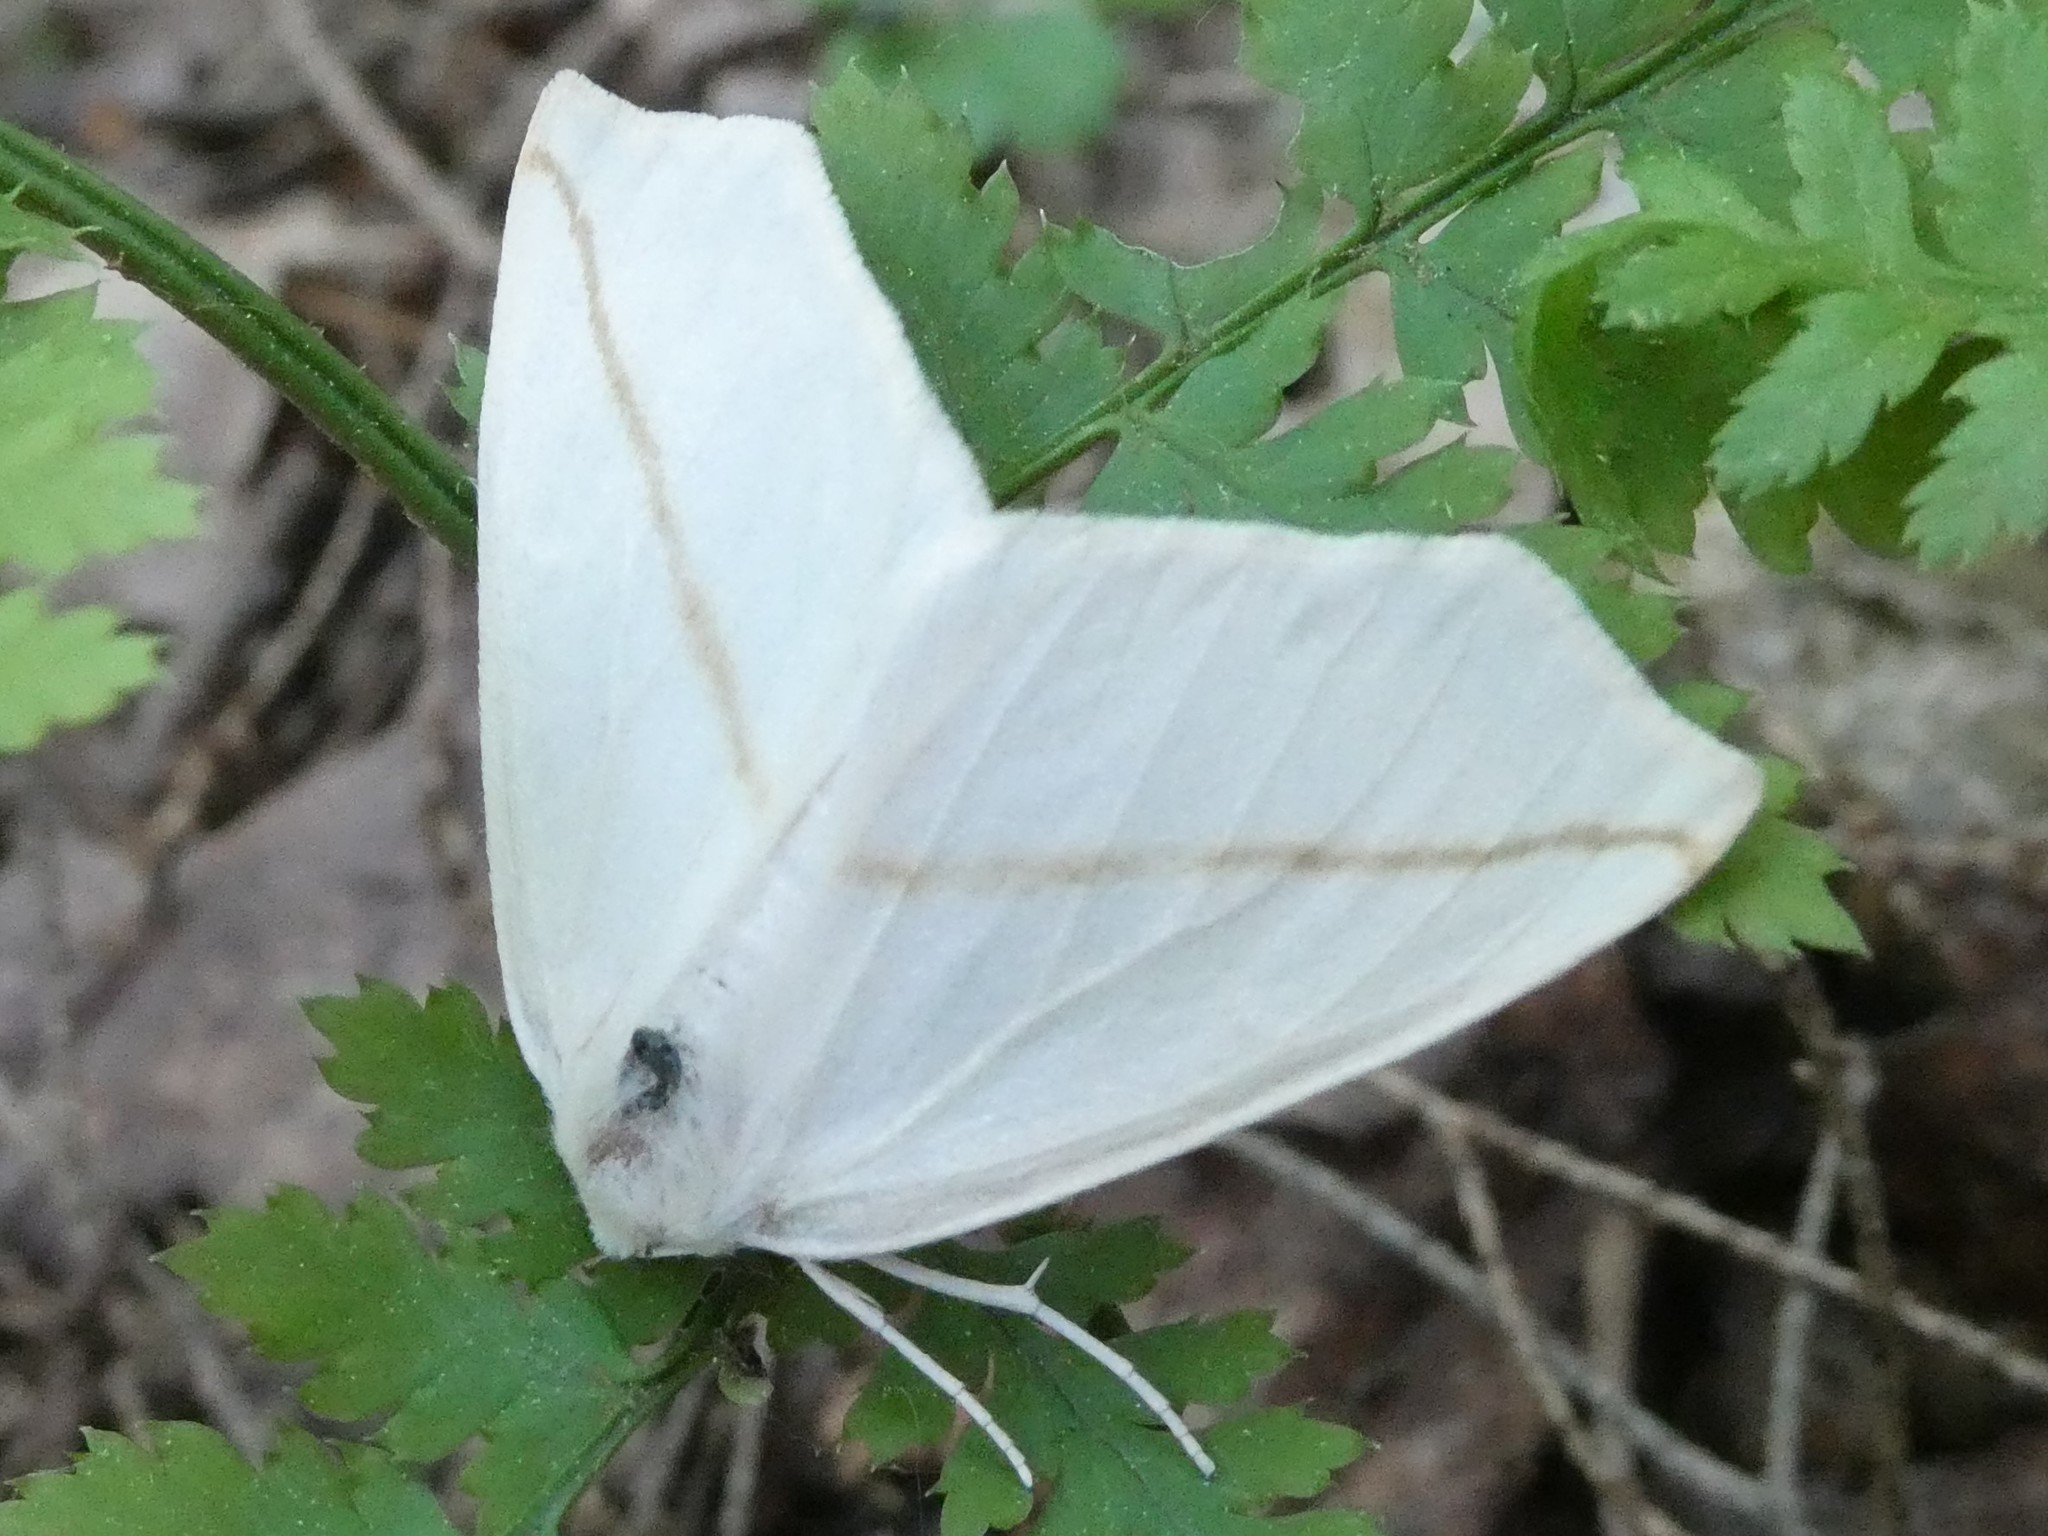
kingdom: Animalia
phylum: Arthropoda
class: Insecta
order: Lepidoptera
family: Geometridae
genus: Tetracis
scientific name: Tetracis cachexiata
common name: White slant-line
